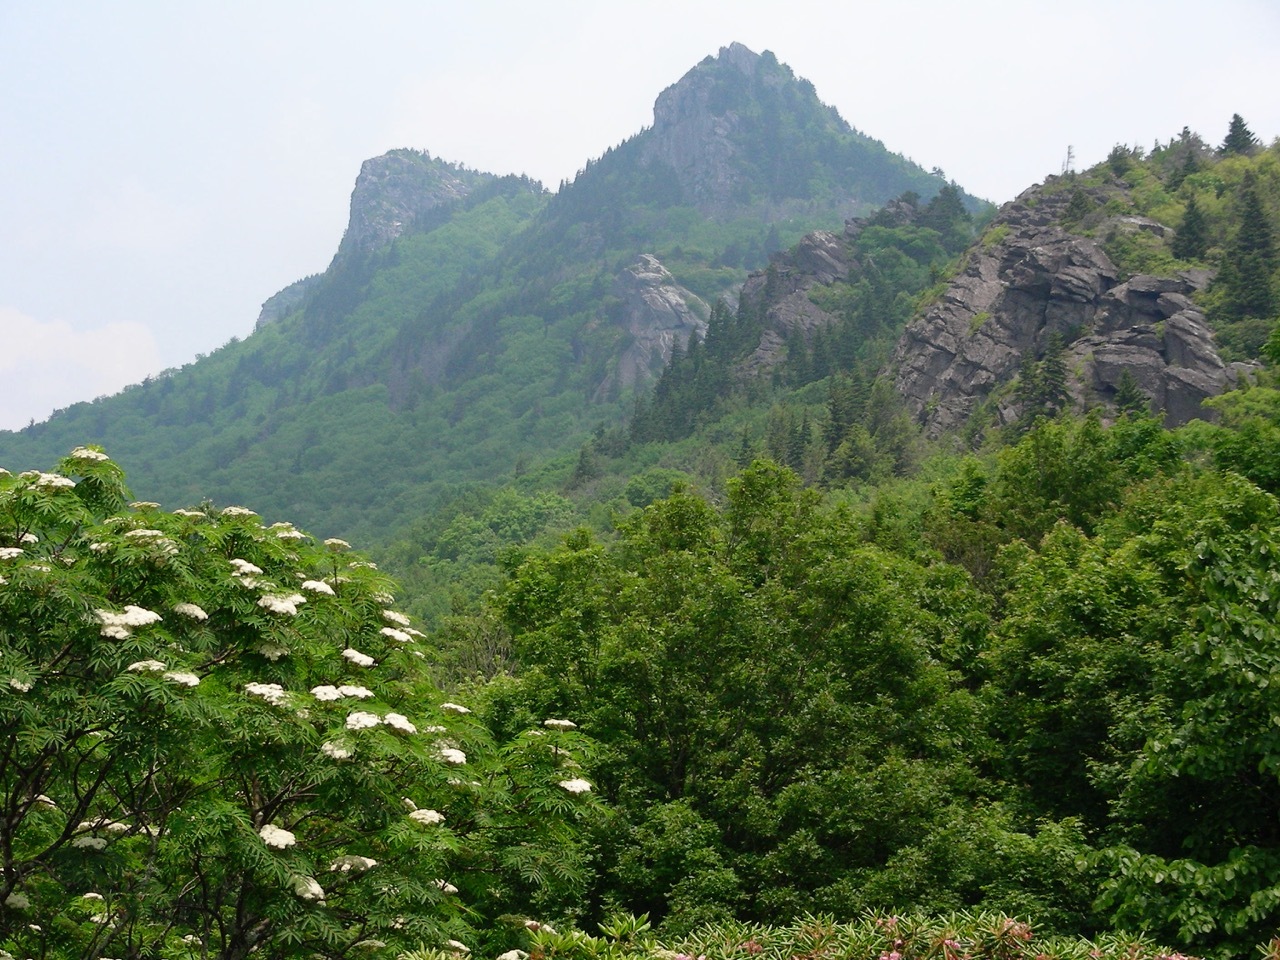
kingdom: Plantae
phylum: Tracheophyta
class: Magnoliopsida
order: Dipsacales
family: Viburnaceae
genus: Sambucus
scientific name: Sambucus canadensis
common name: American elder
